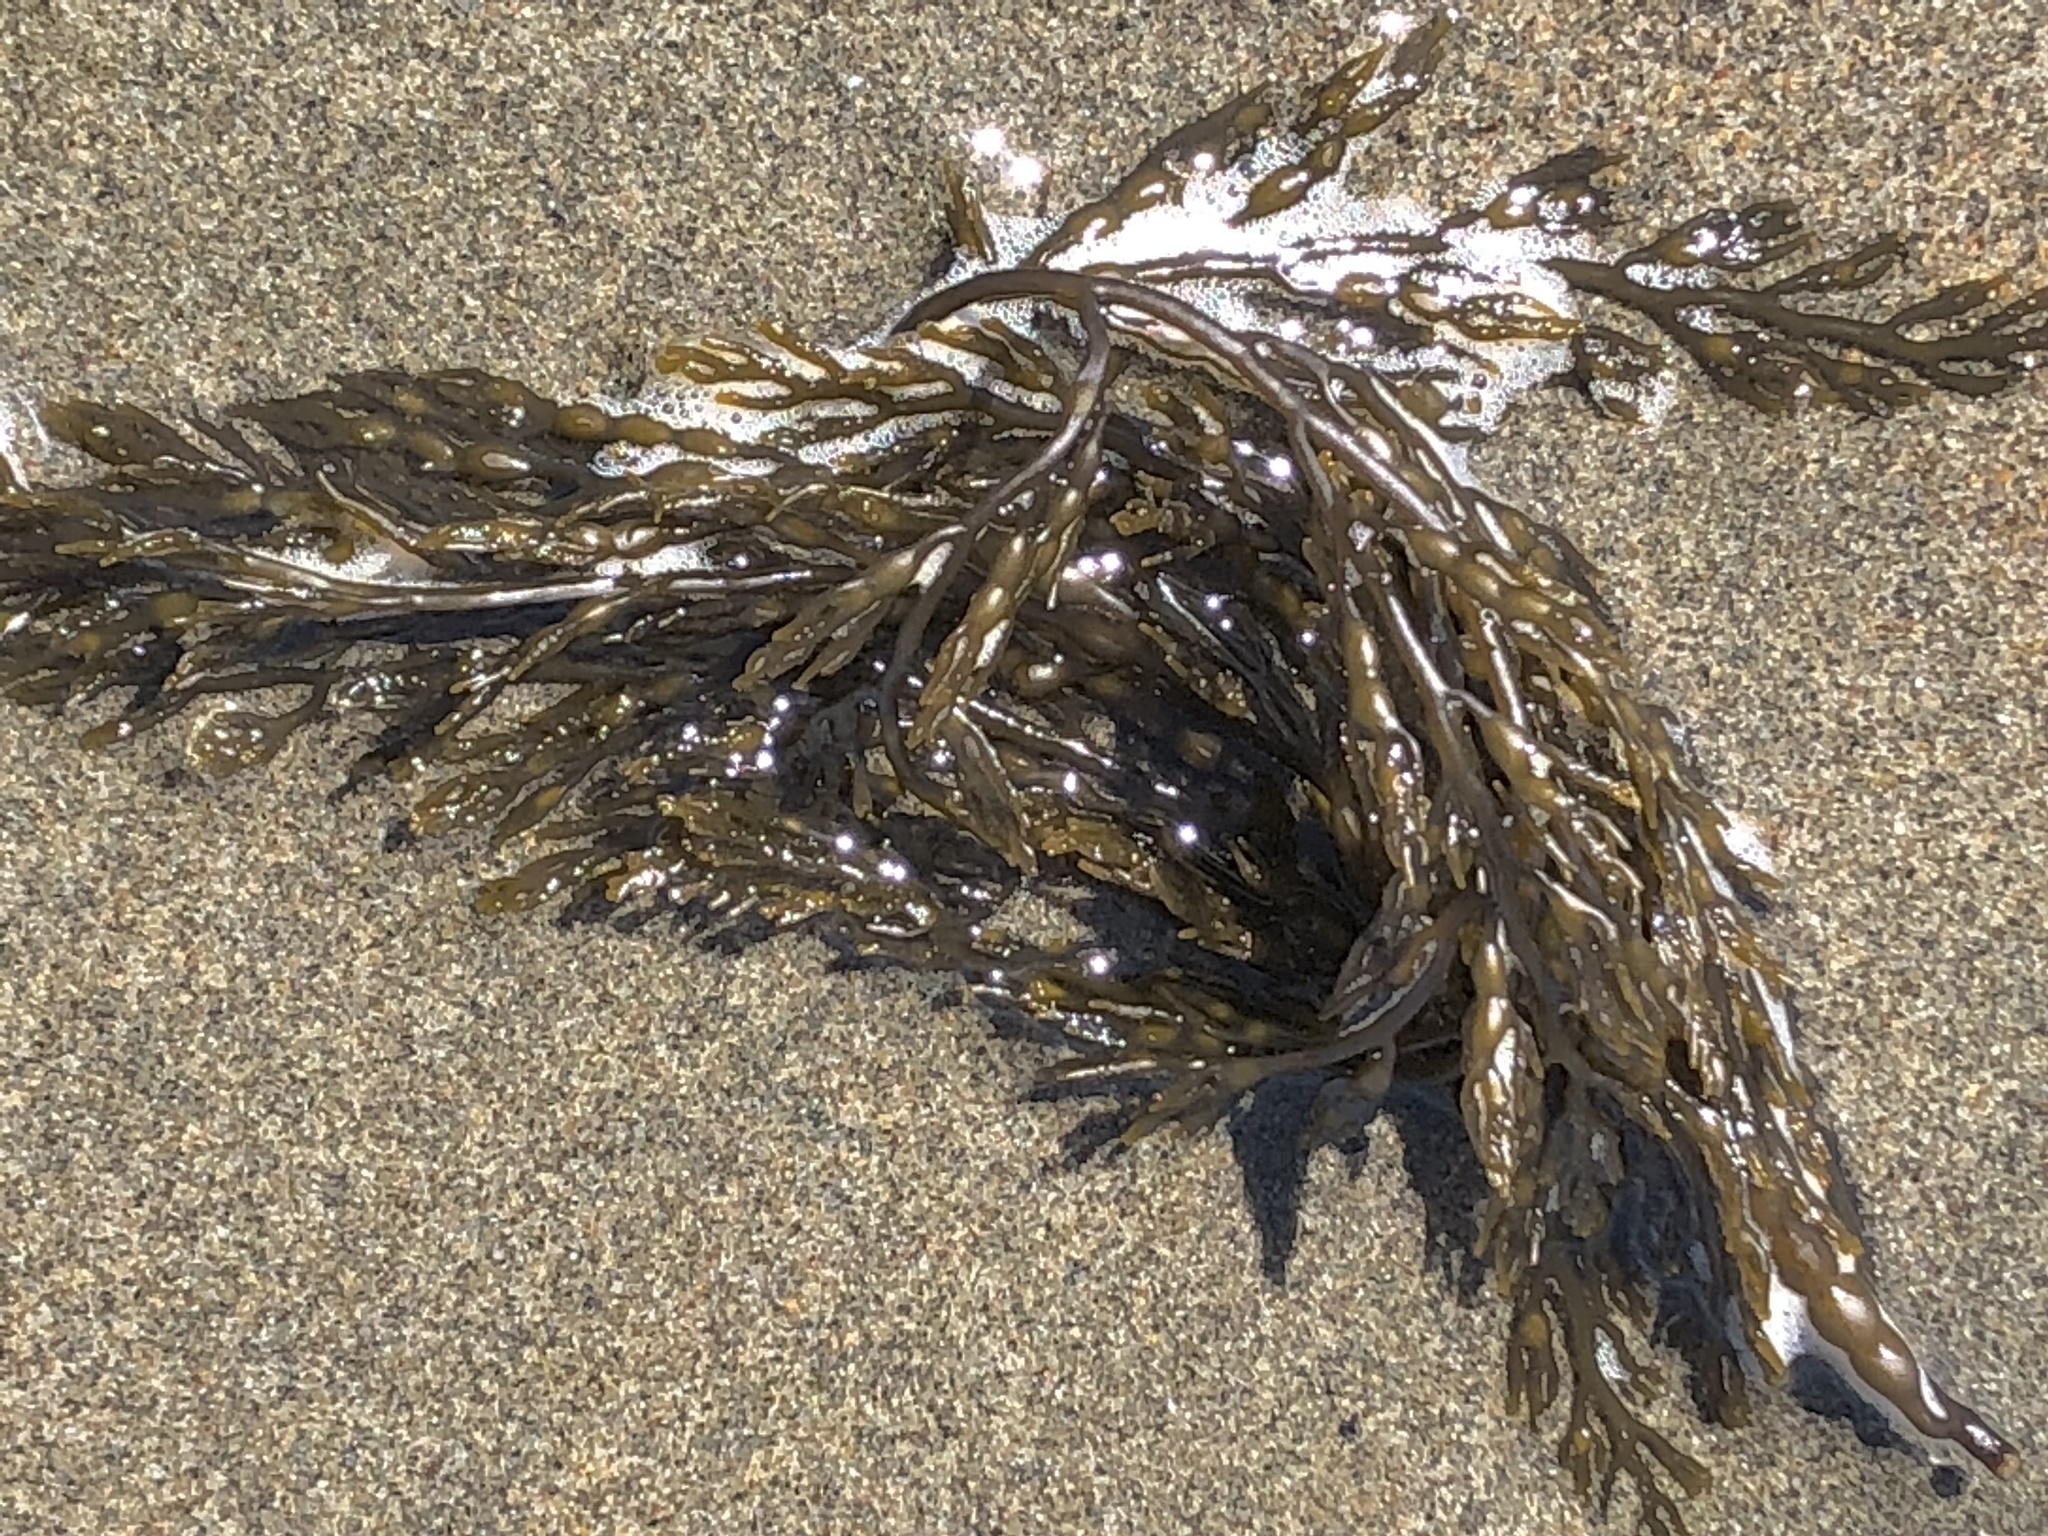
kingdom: Chromista
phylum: Ochrophyta
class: Phaeophyceae
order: Fucales
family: Sargassaceae
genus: Stephanocystis
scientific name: Stephanocystis
